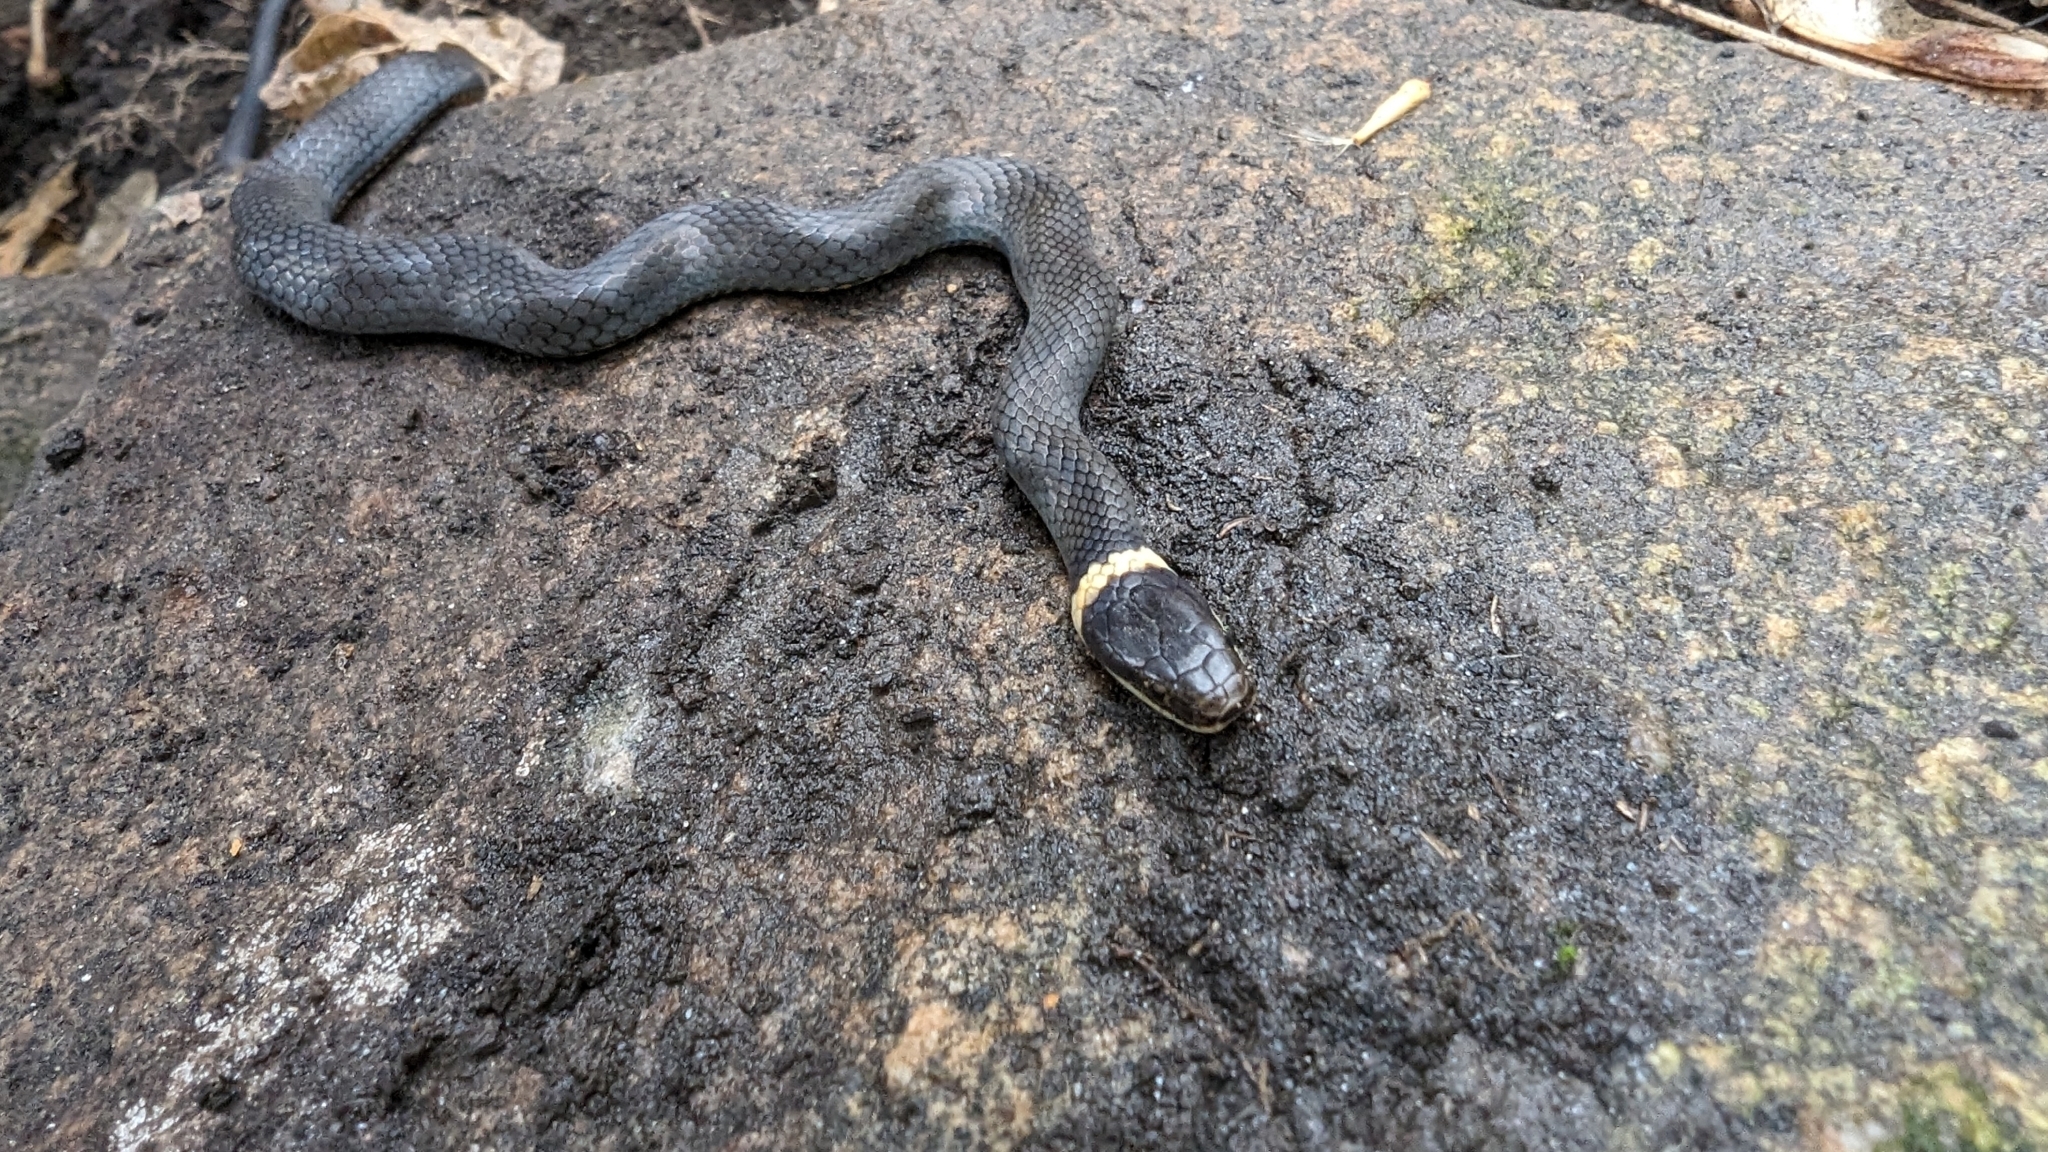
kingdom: Animalia
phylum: Chordata
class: Squamata
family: Colubridae
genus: Diadophis
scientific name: Diadophis punctatus
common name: Ringneck snake
